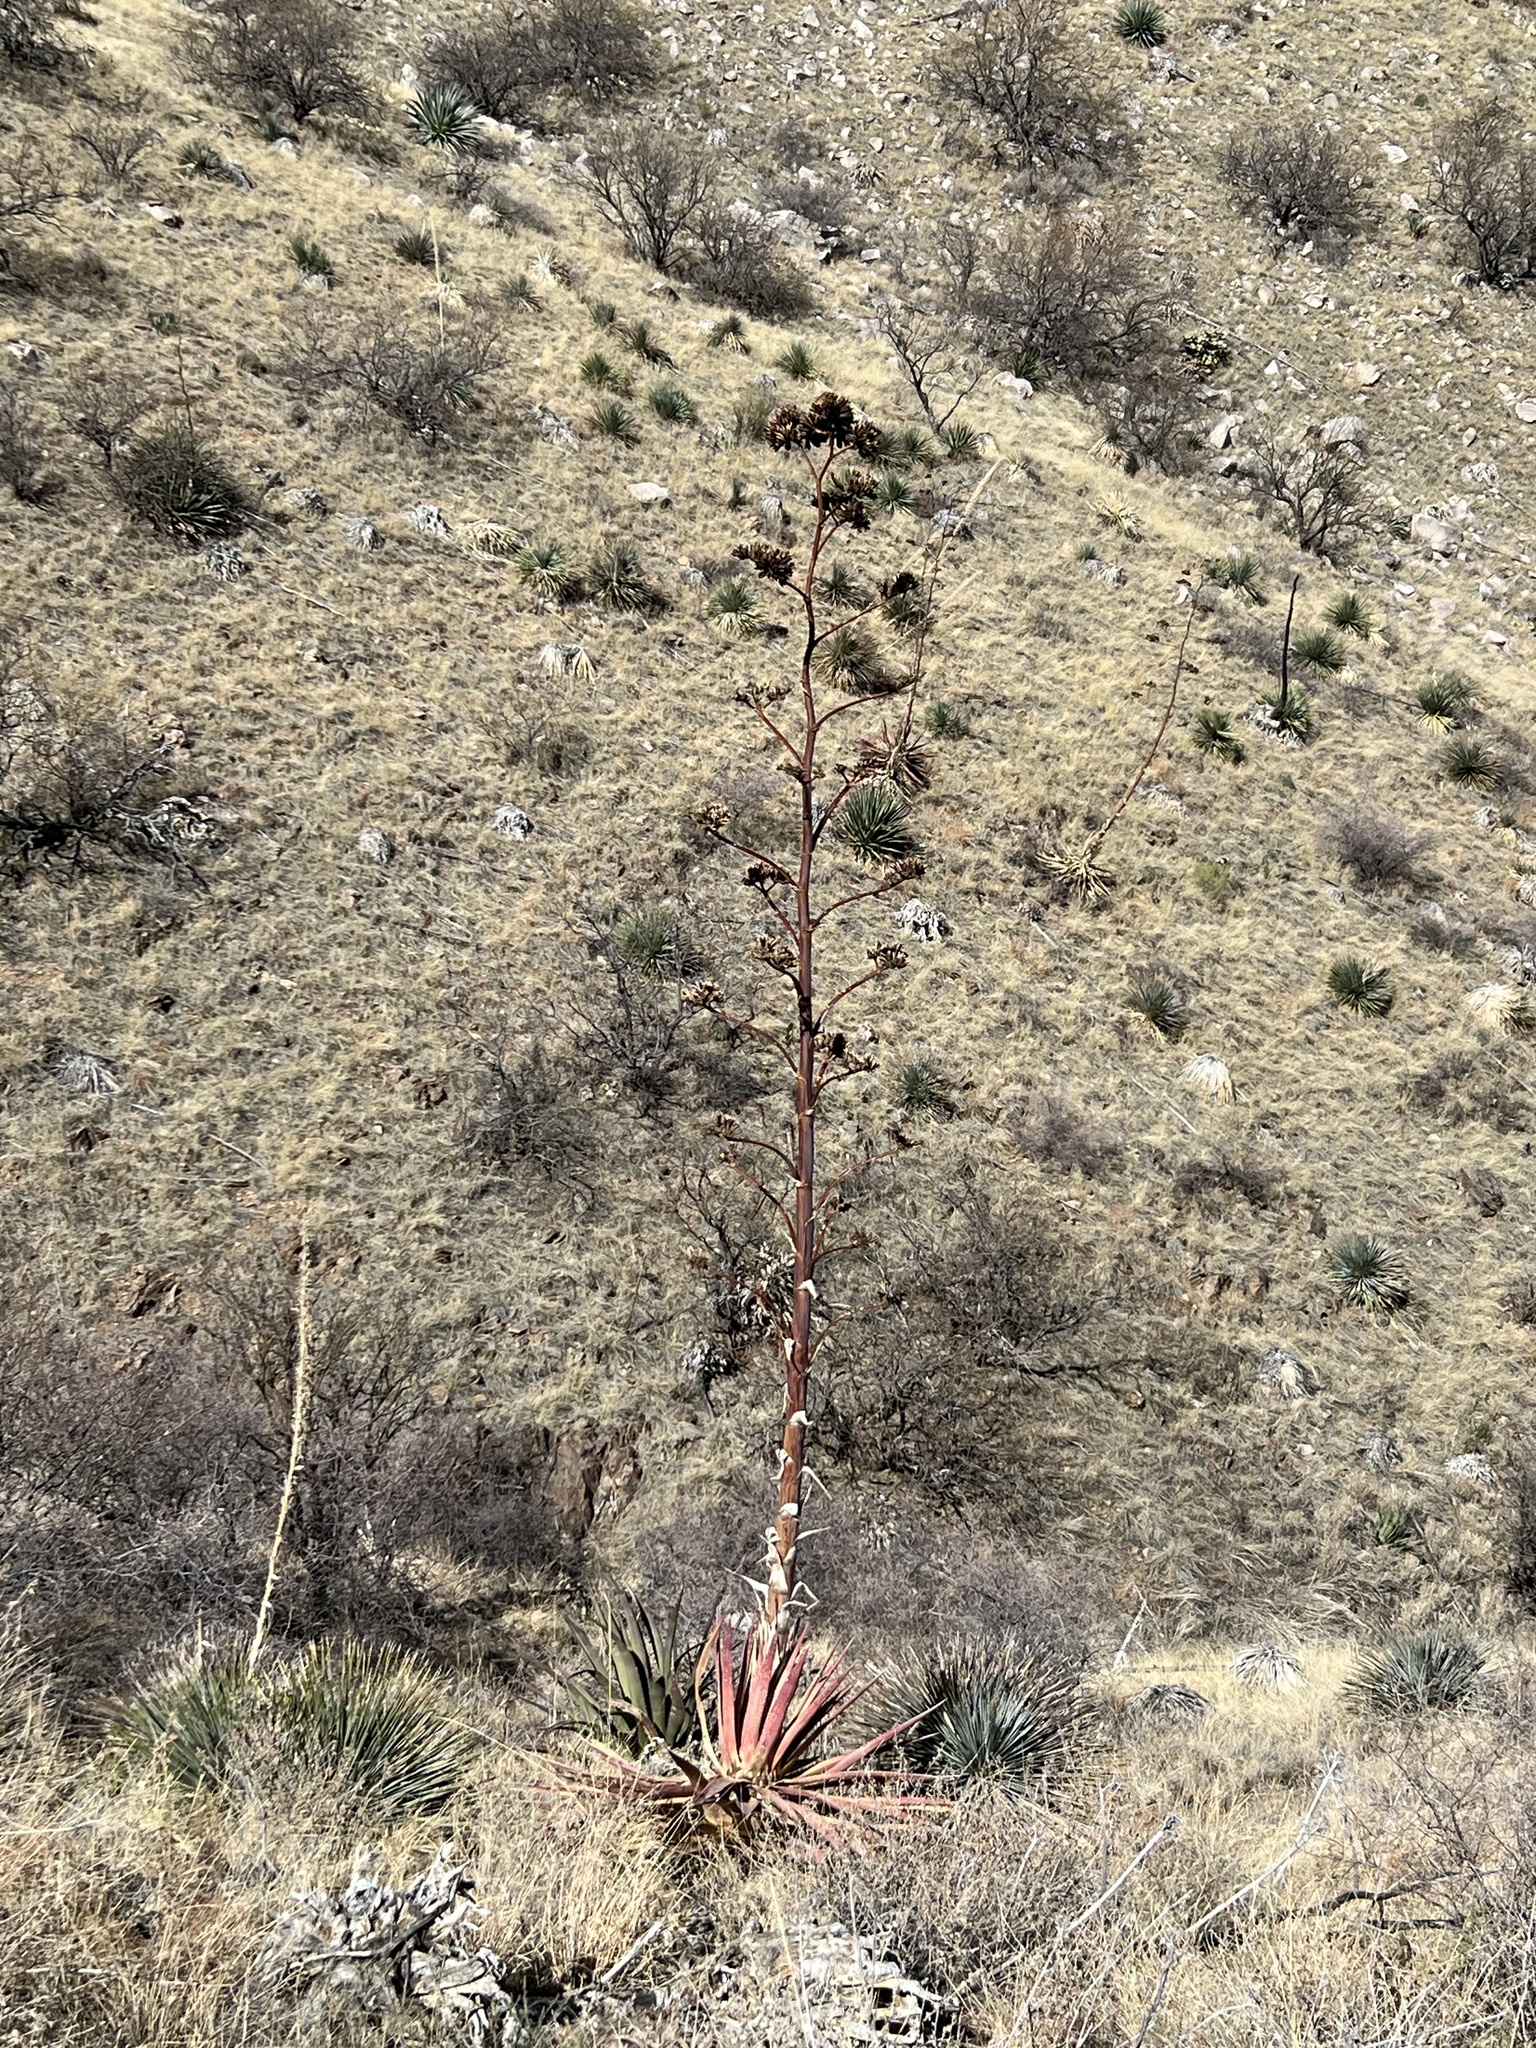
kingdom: Plantae
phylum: Tracheophyta
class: Liliopsida
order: Asparagales
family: Asparagaceae
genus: Agave
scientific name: Agave palmeri
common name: Palmer agave
